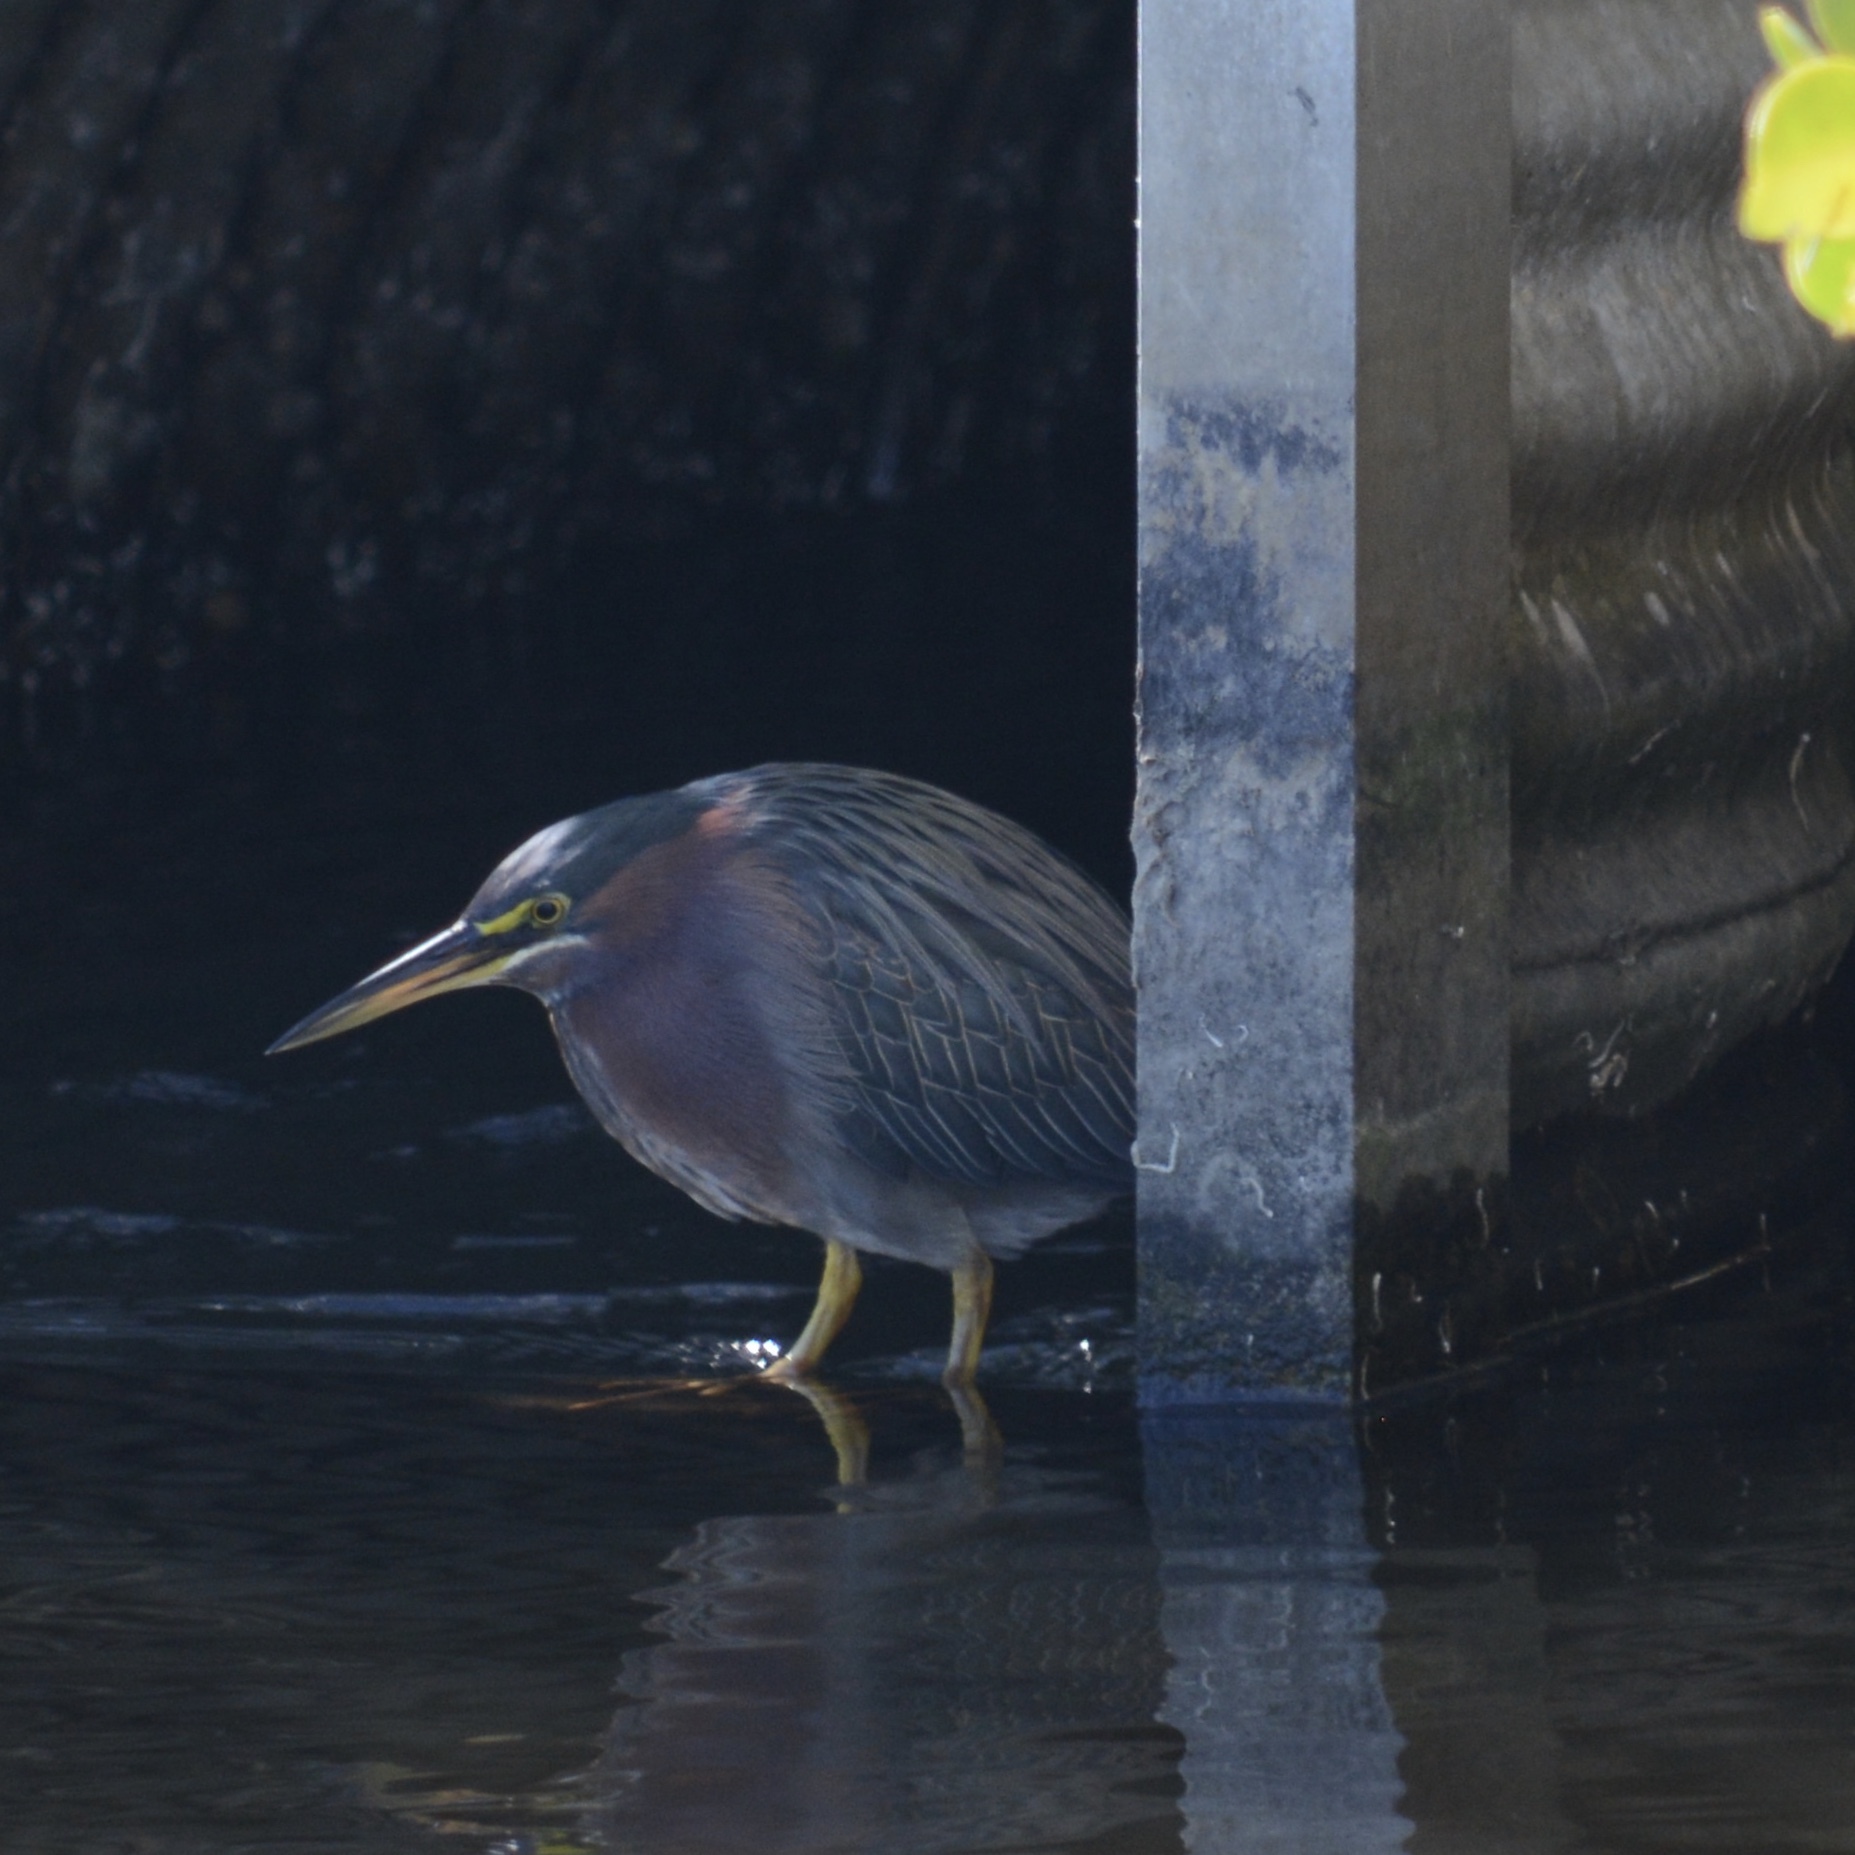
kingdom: Animalia
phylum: Chordata
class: Aves
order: Pelecaniformes
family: Ardeidae
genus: Butorides
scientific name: Butorides virescens
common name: Green heron
